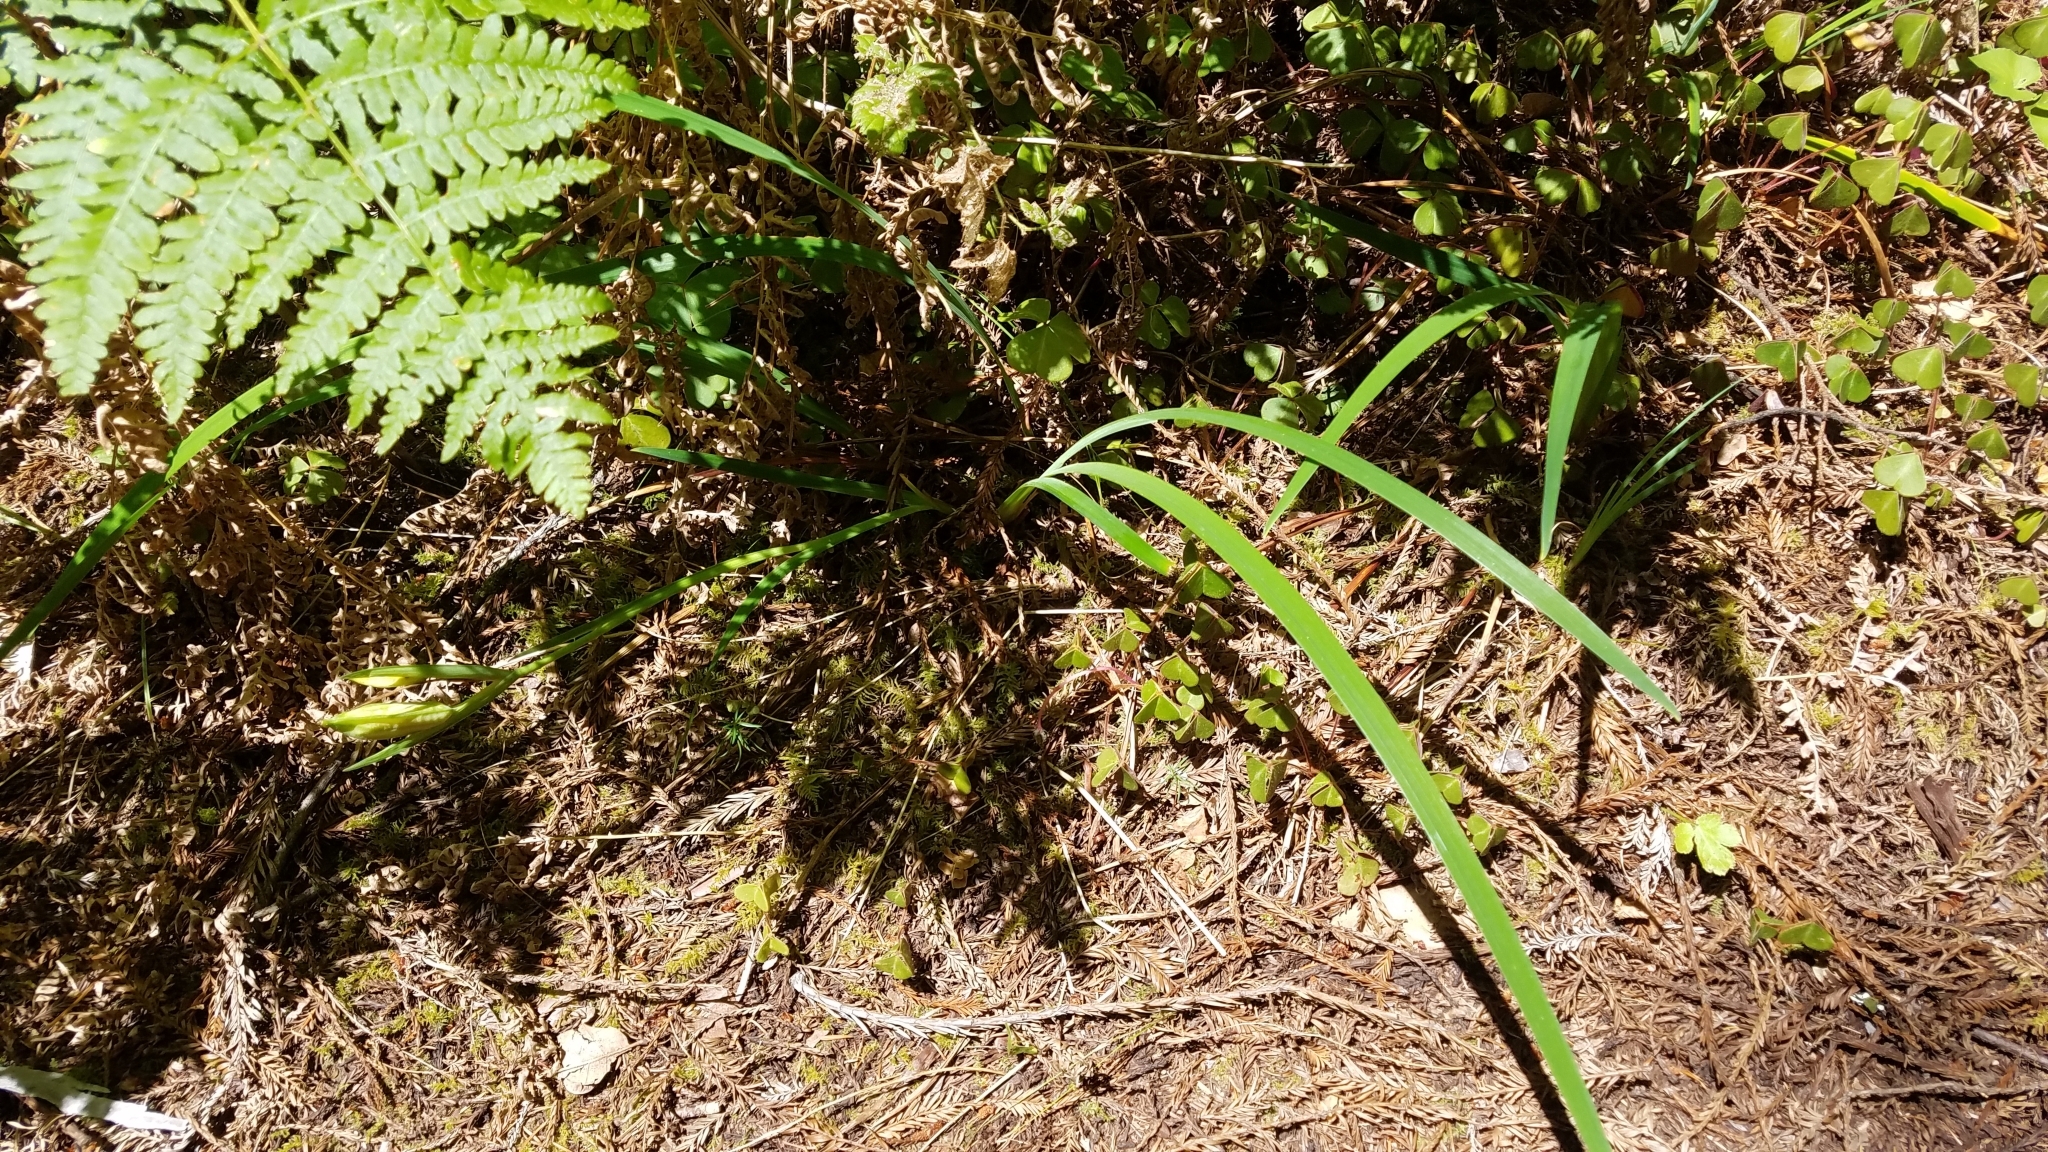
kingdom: Plantae
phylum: Tracheophyta
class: Liliopsida
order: Asparagales
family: Iridaceae
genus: Iris
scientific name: Iris douglasiana
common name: Marin iris
